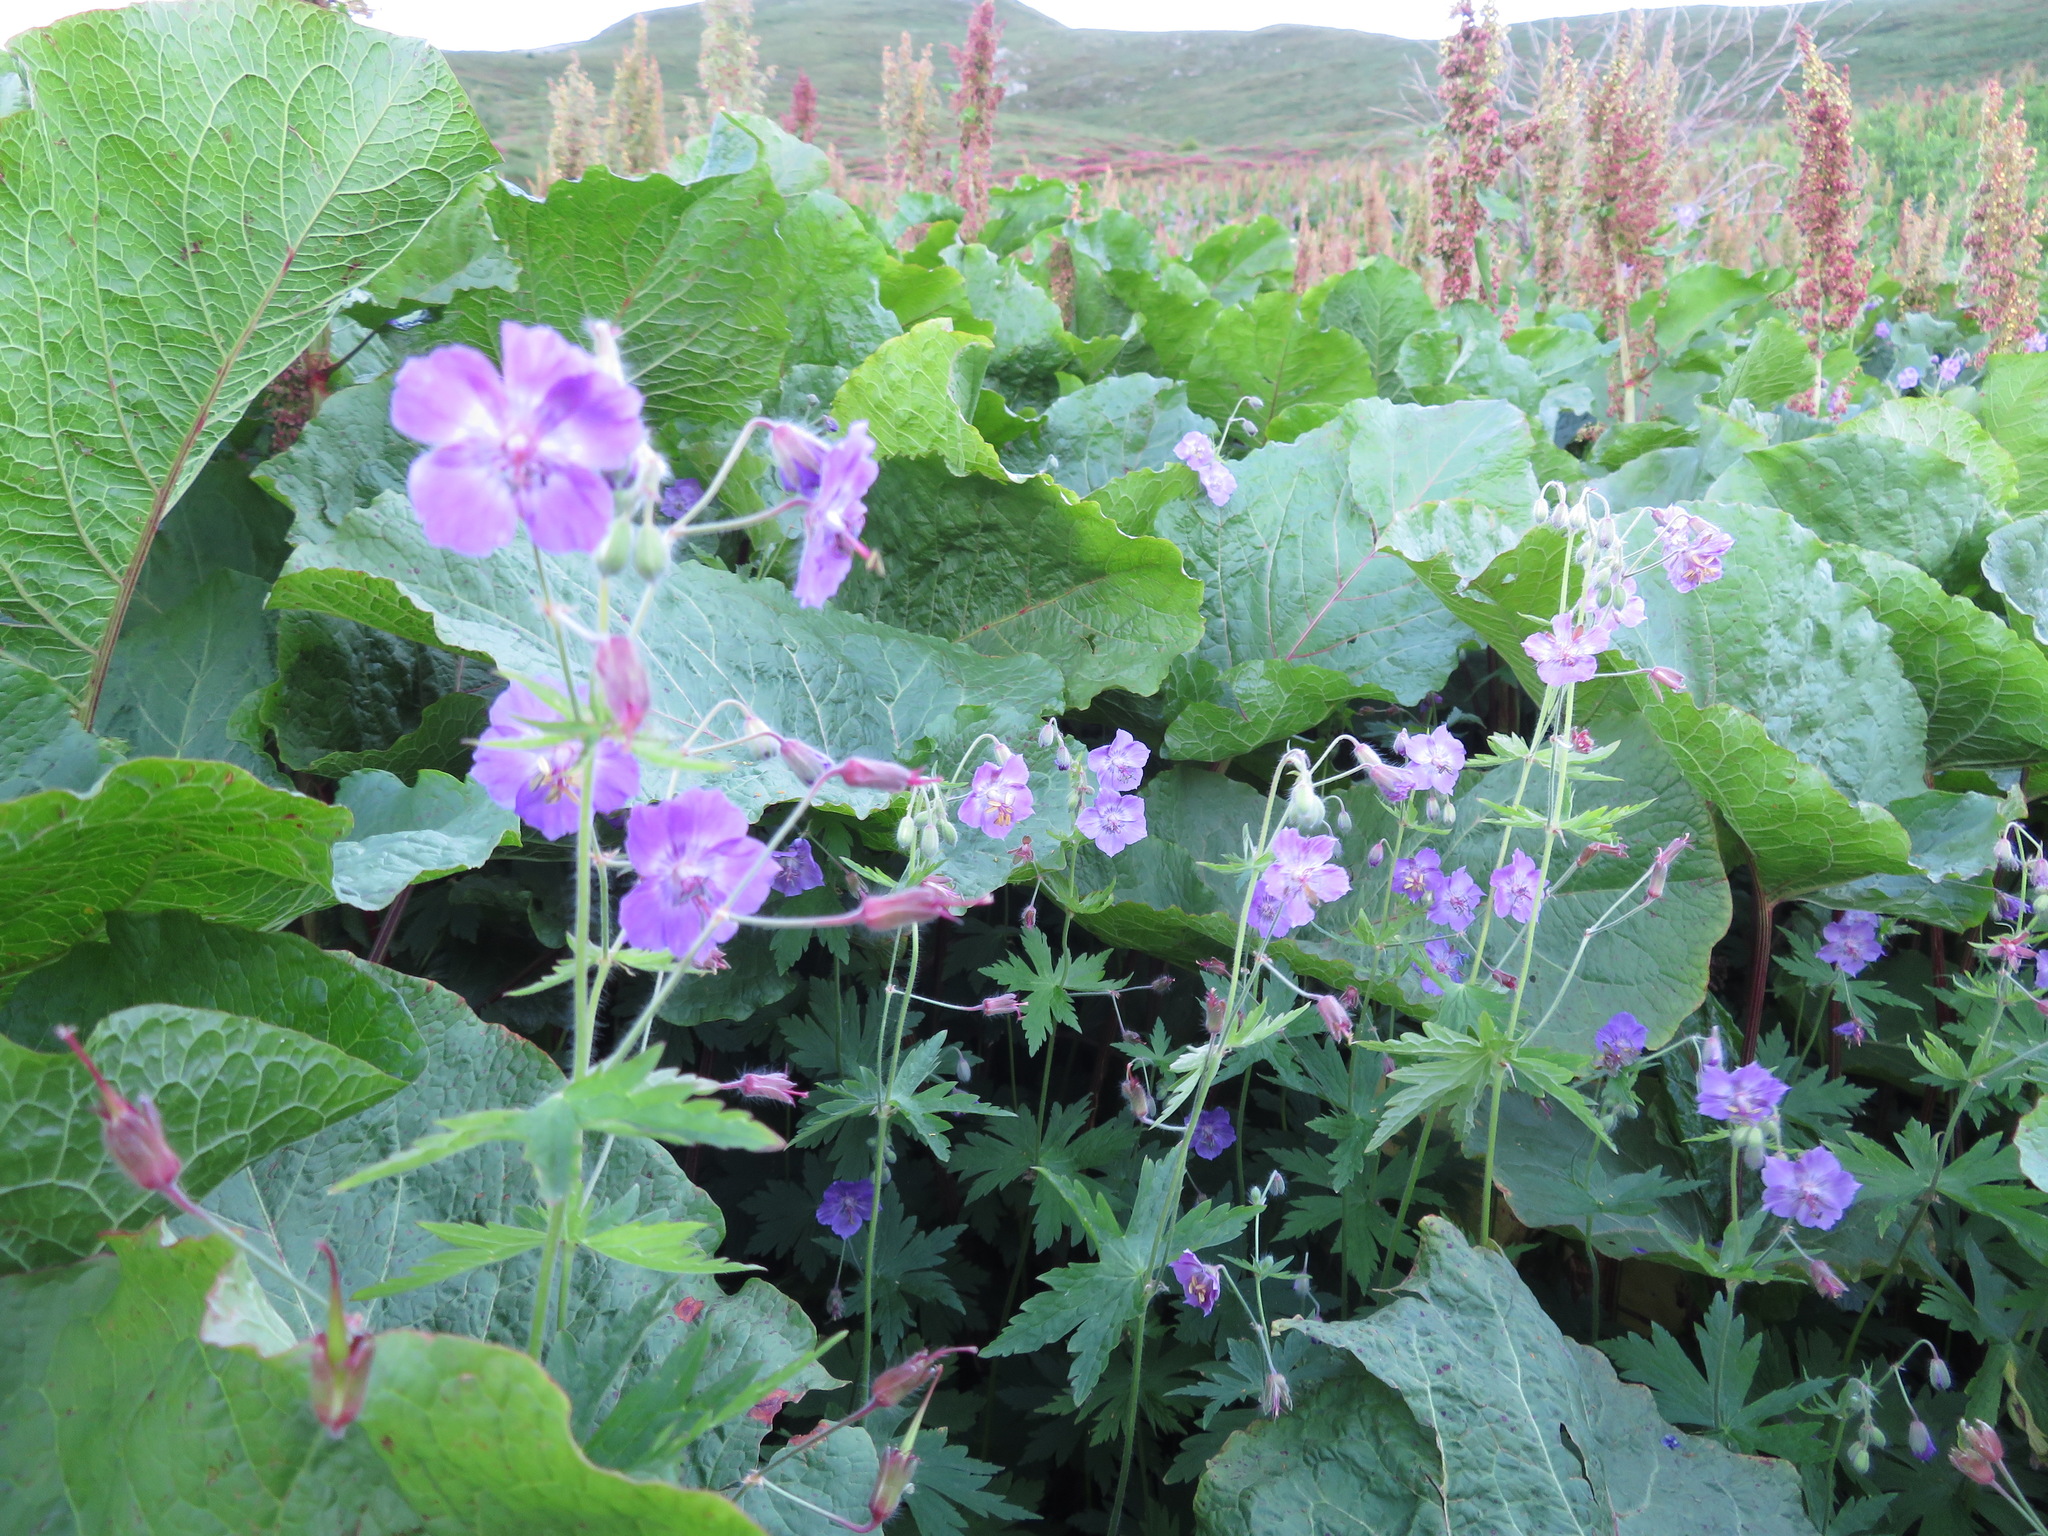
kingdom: Plantae
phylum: Tracheophyta
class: Magnoliopsida
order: Geraniales
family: Geraniaceae
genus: Geranium
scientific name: Geranium phaeum
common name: Dusky crane's-bill
